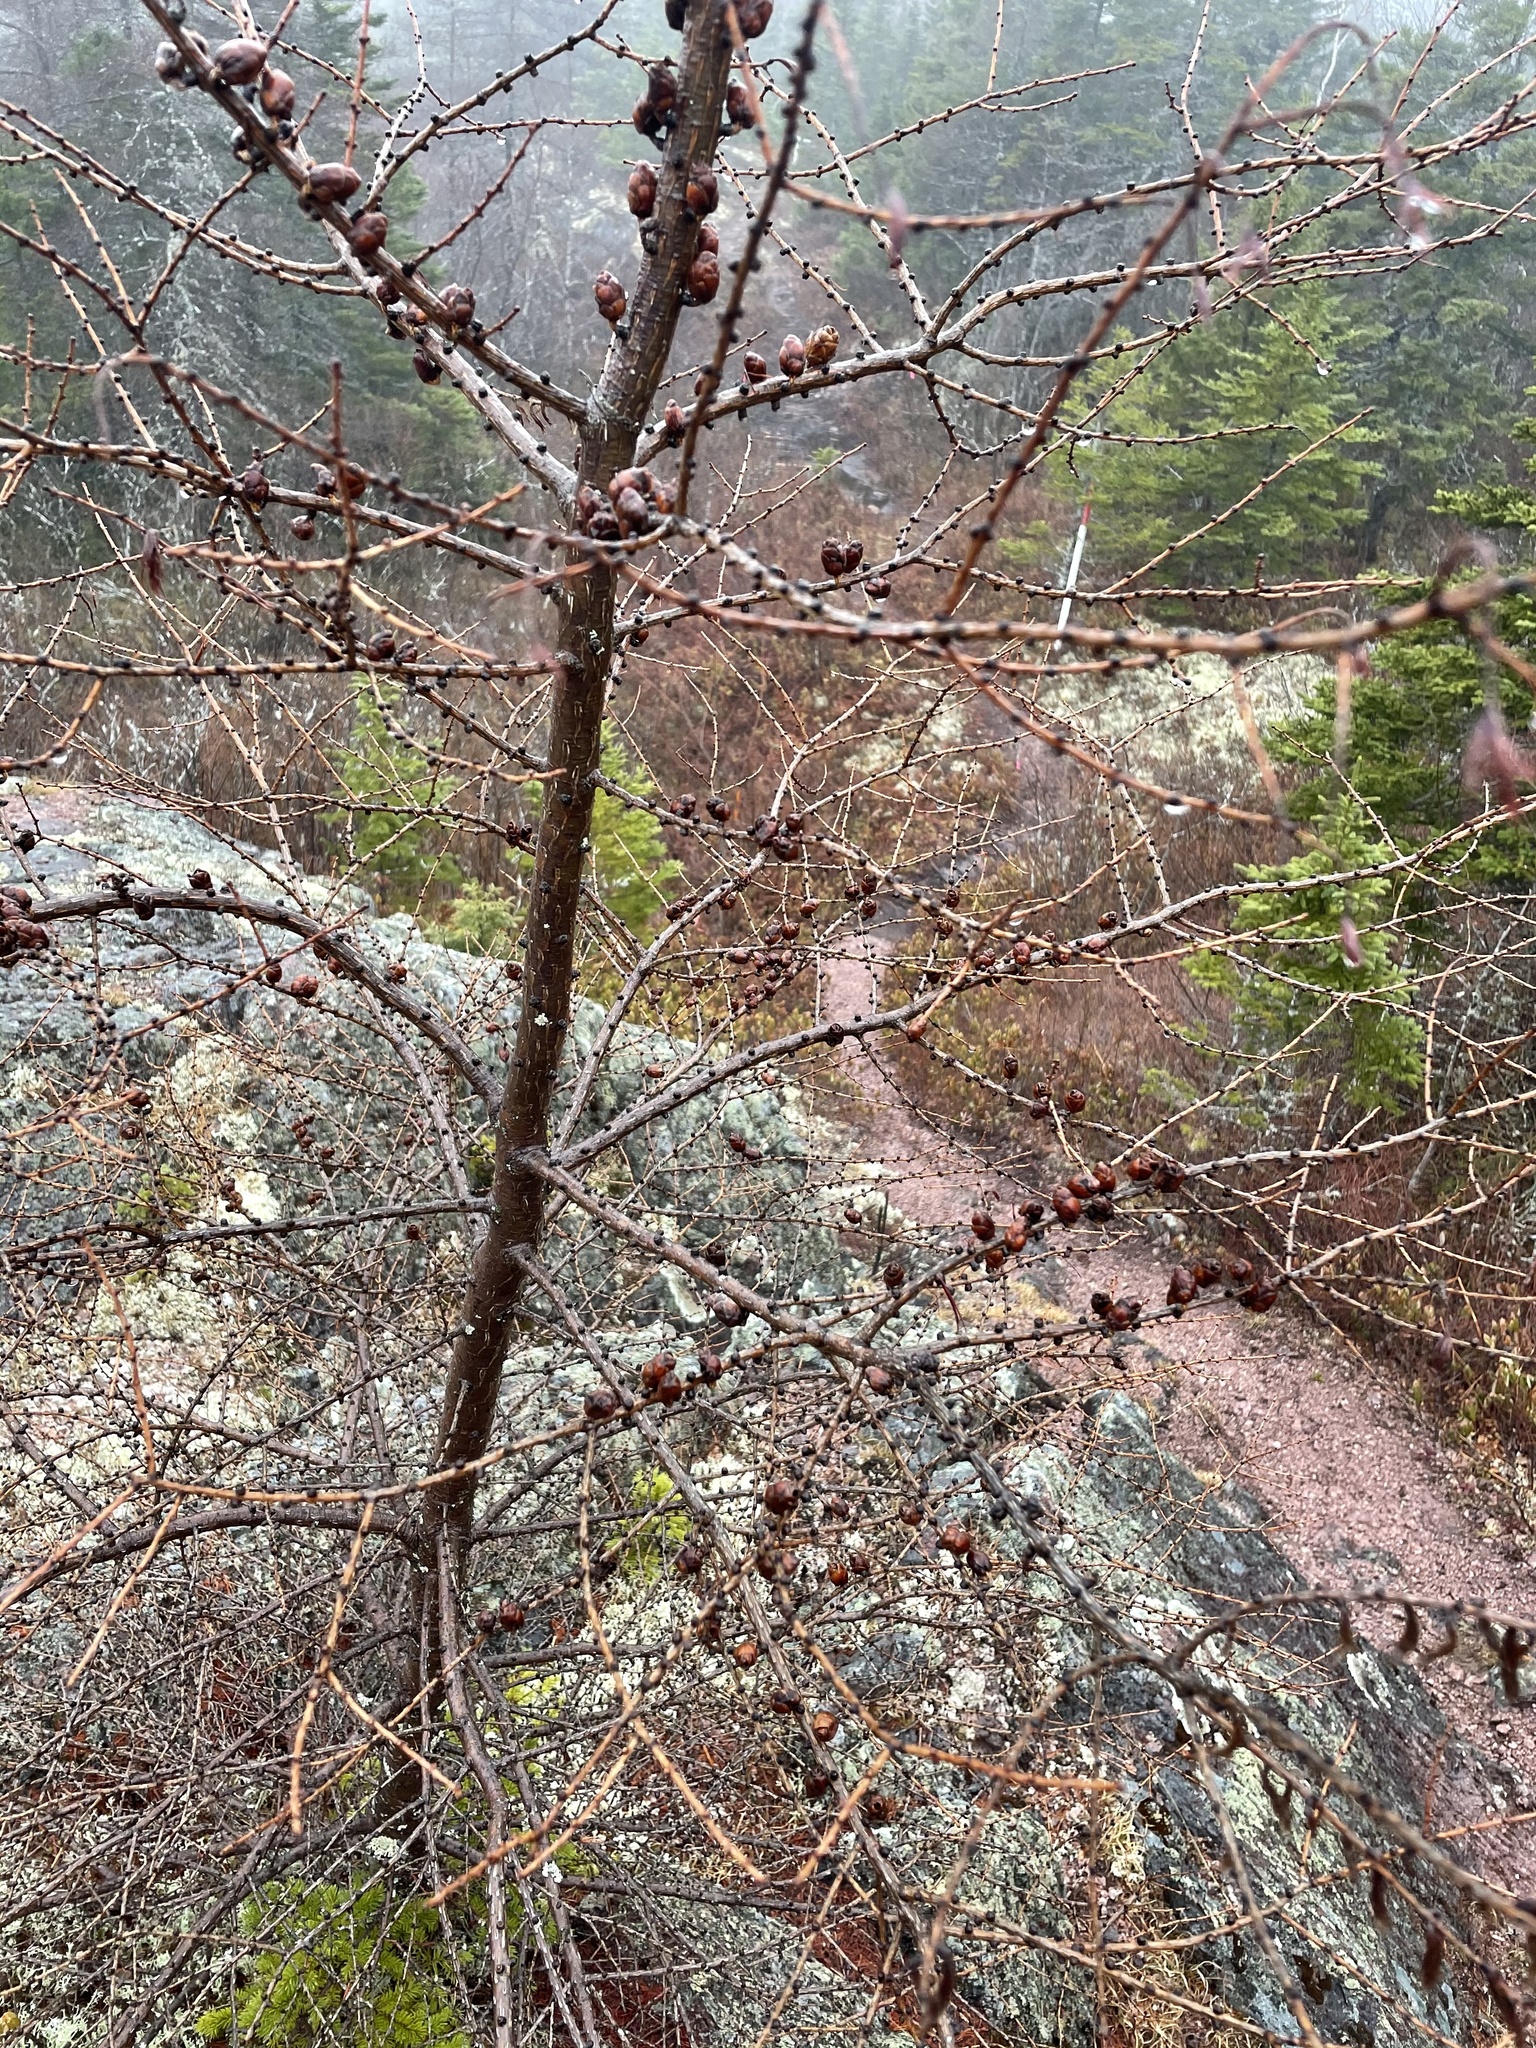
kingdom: Plantae
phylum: Tracheophyta
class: Pinopsida
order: Pinales
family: Pinaceae
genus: Larix
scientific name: Larix laricina
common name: American larch
